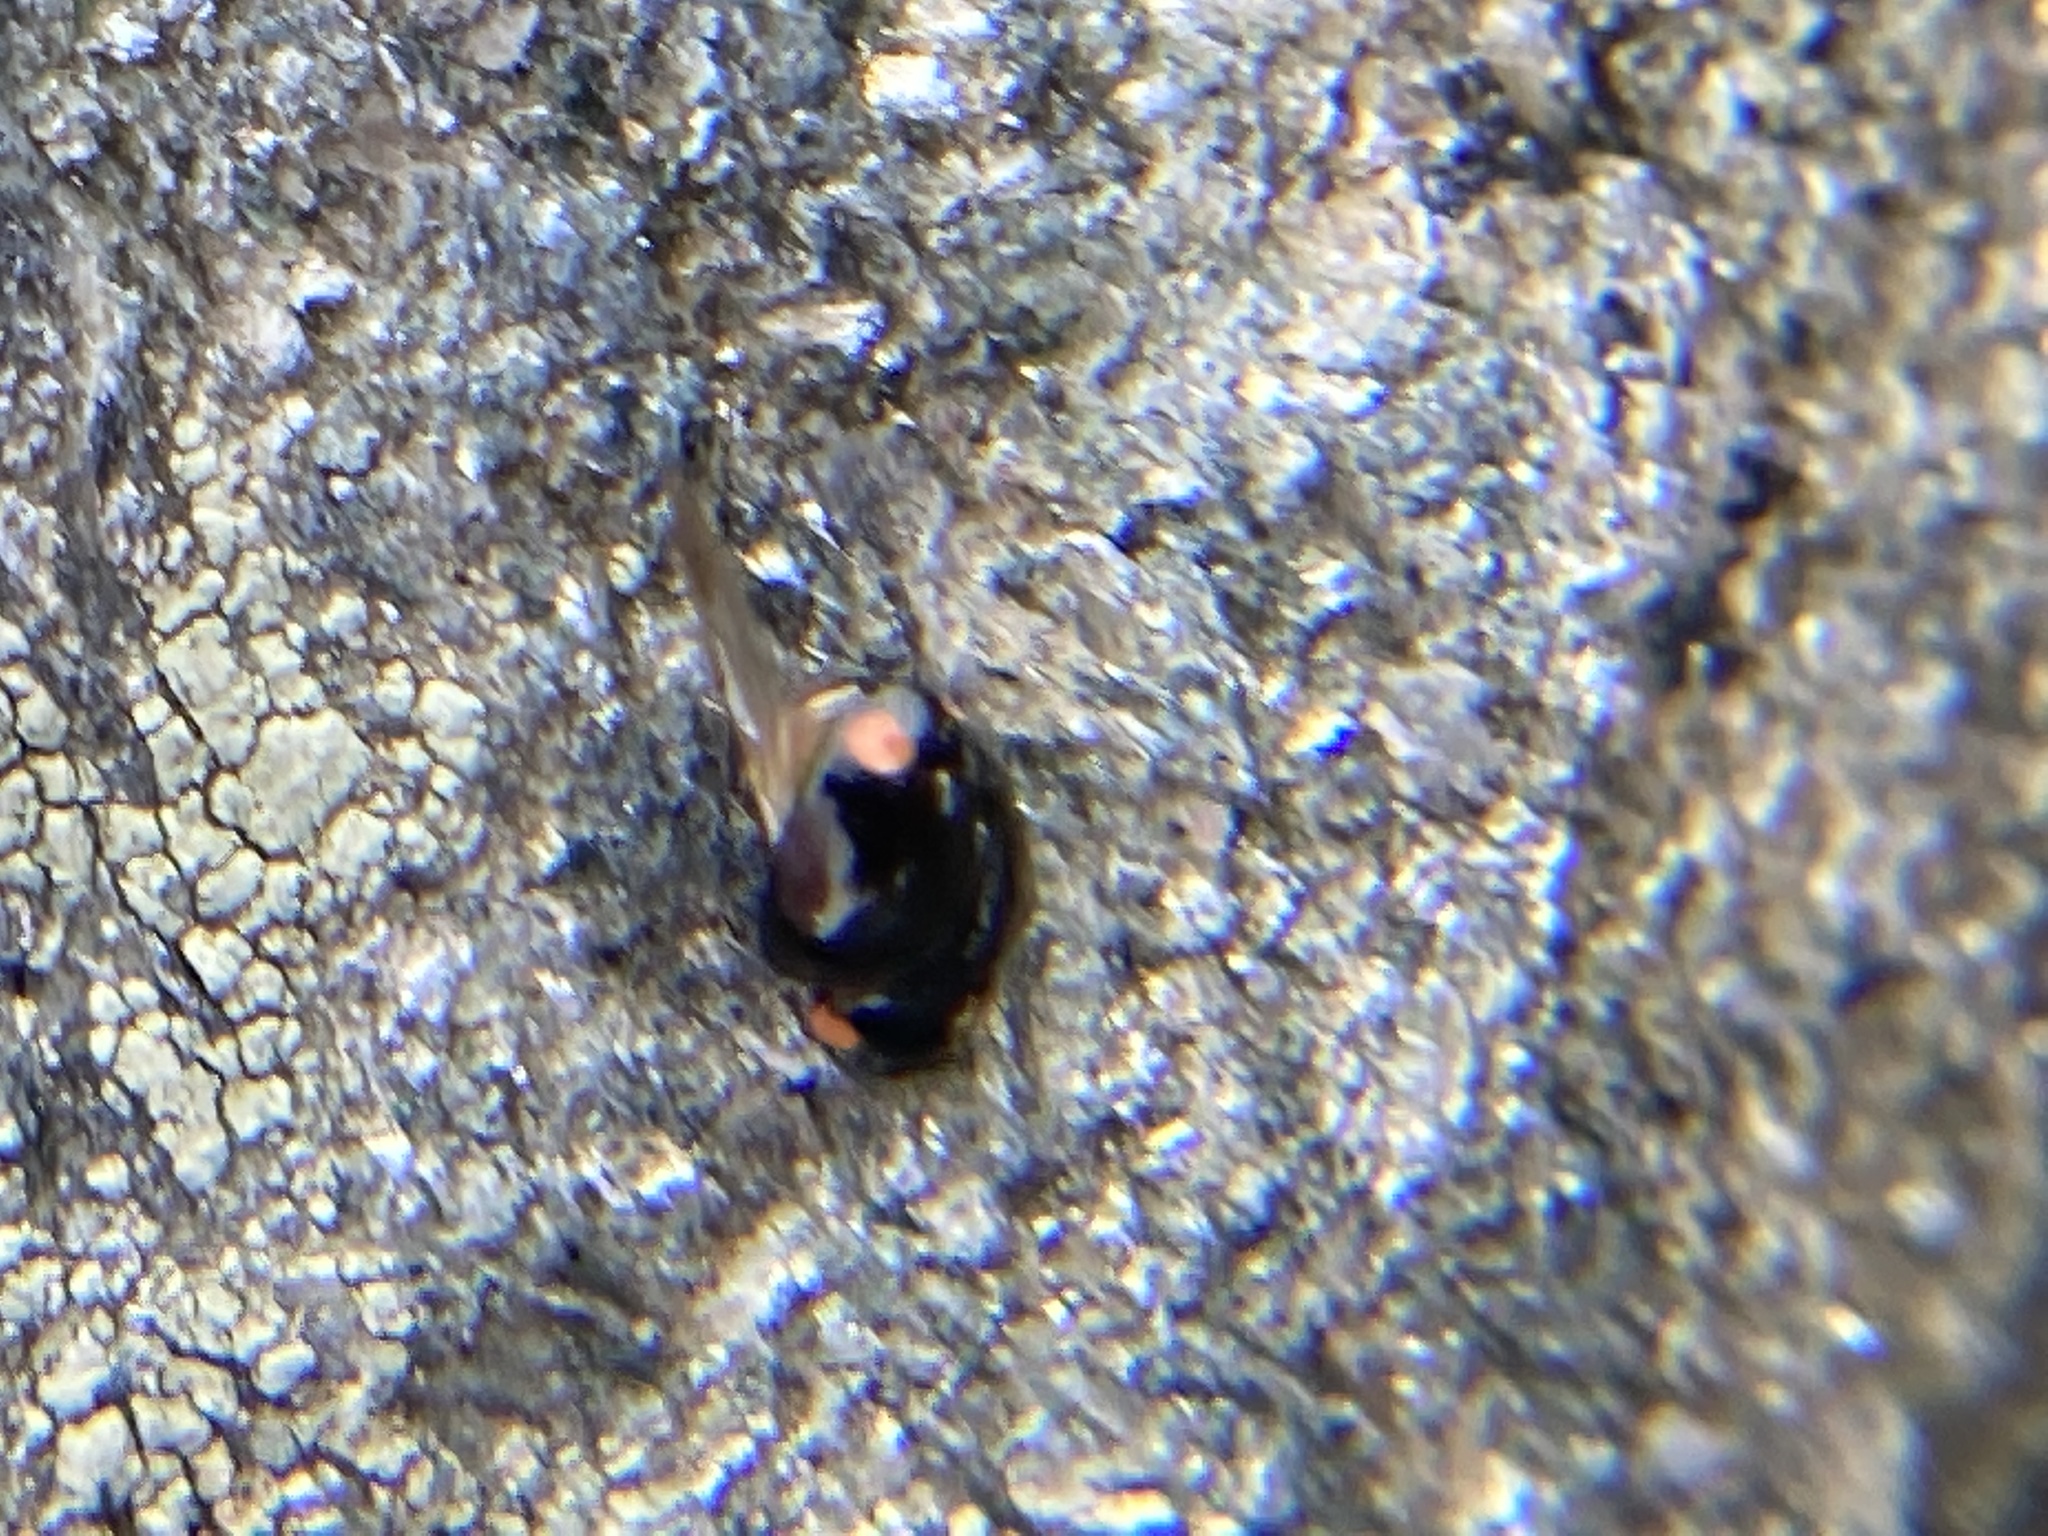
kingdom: Animalia
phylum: Arthropoda
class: Insecta
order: Coleoptera
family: Coccinellidae
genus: Hyperaspis
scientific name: Hyperaspis bigeminata
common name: Bigeminate sigil lady beetle
